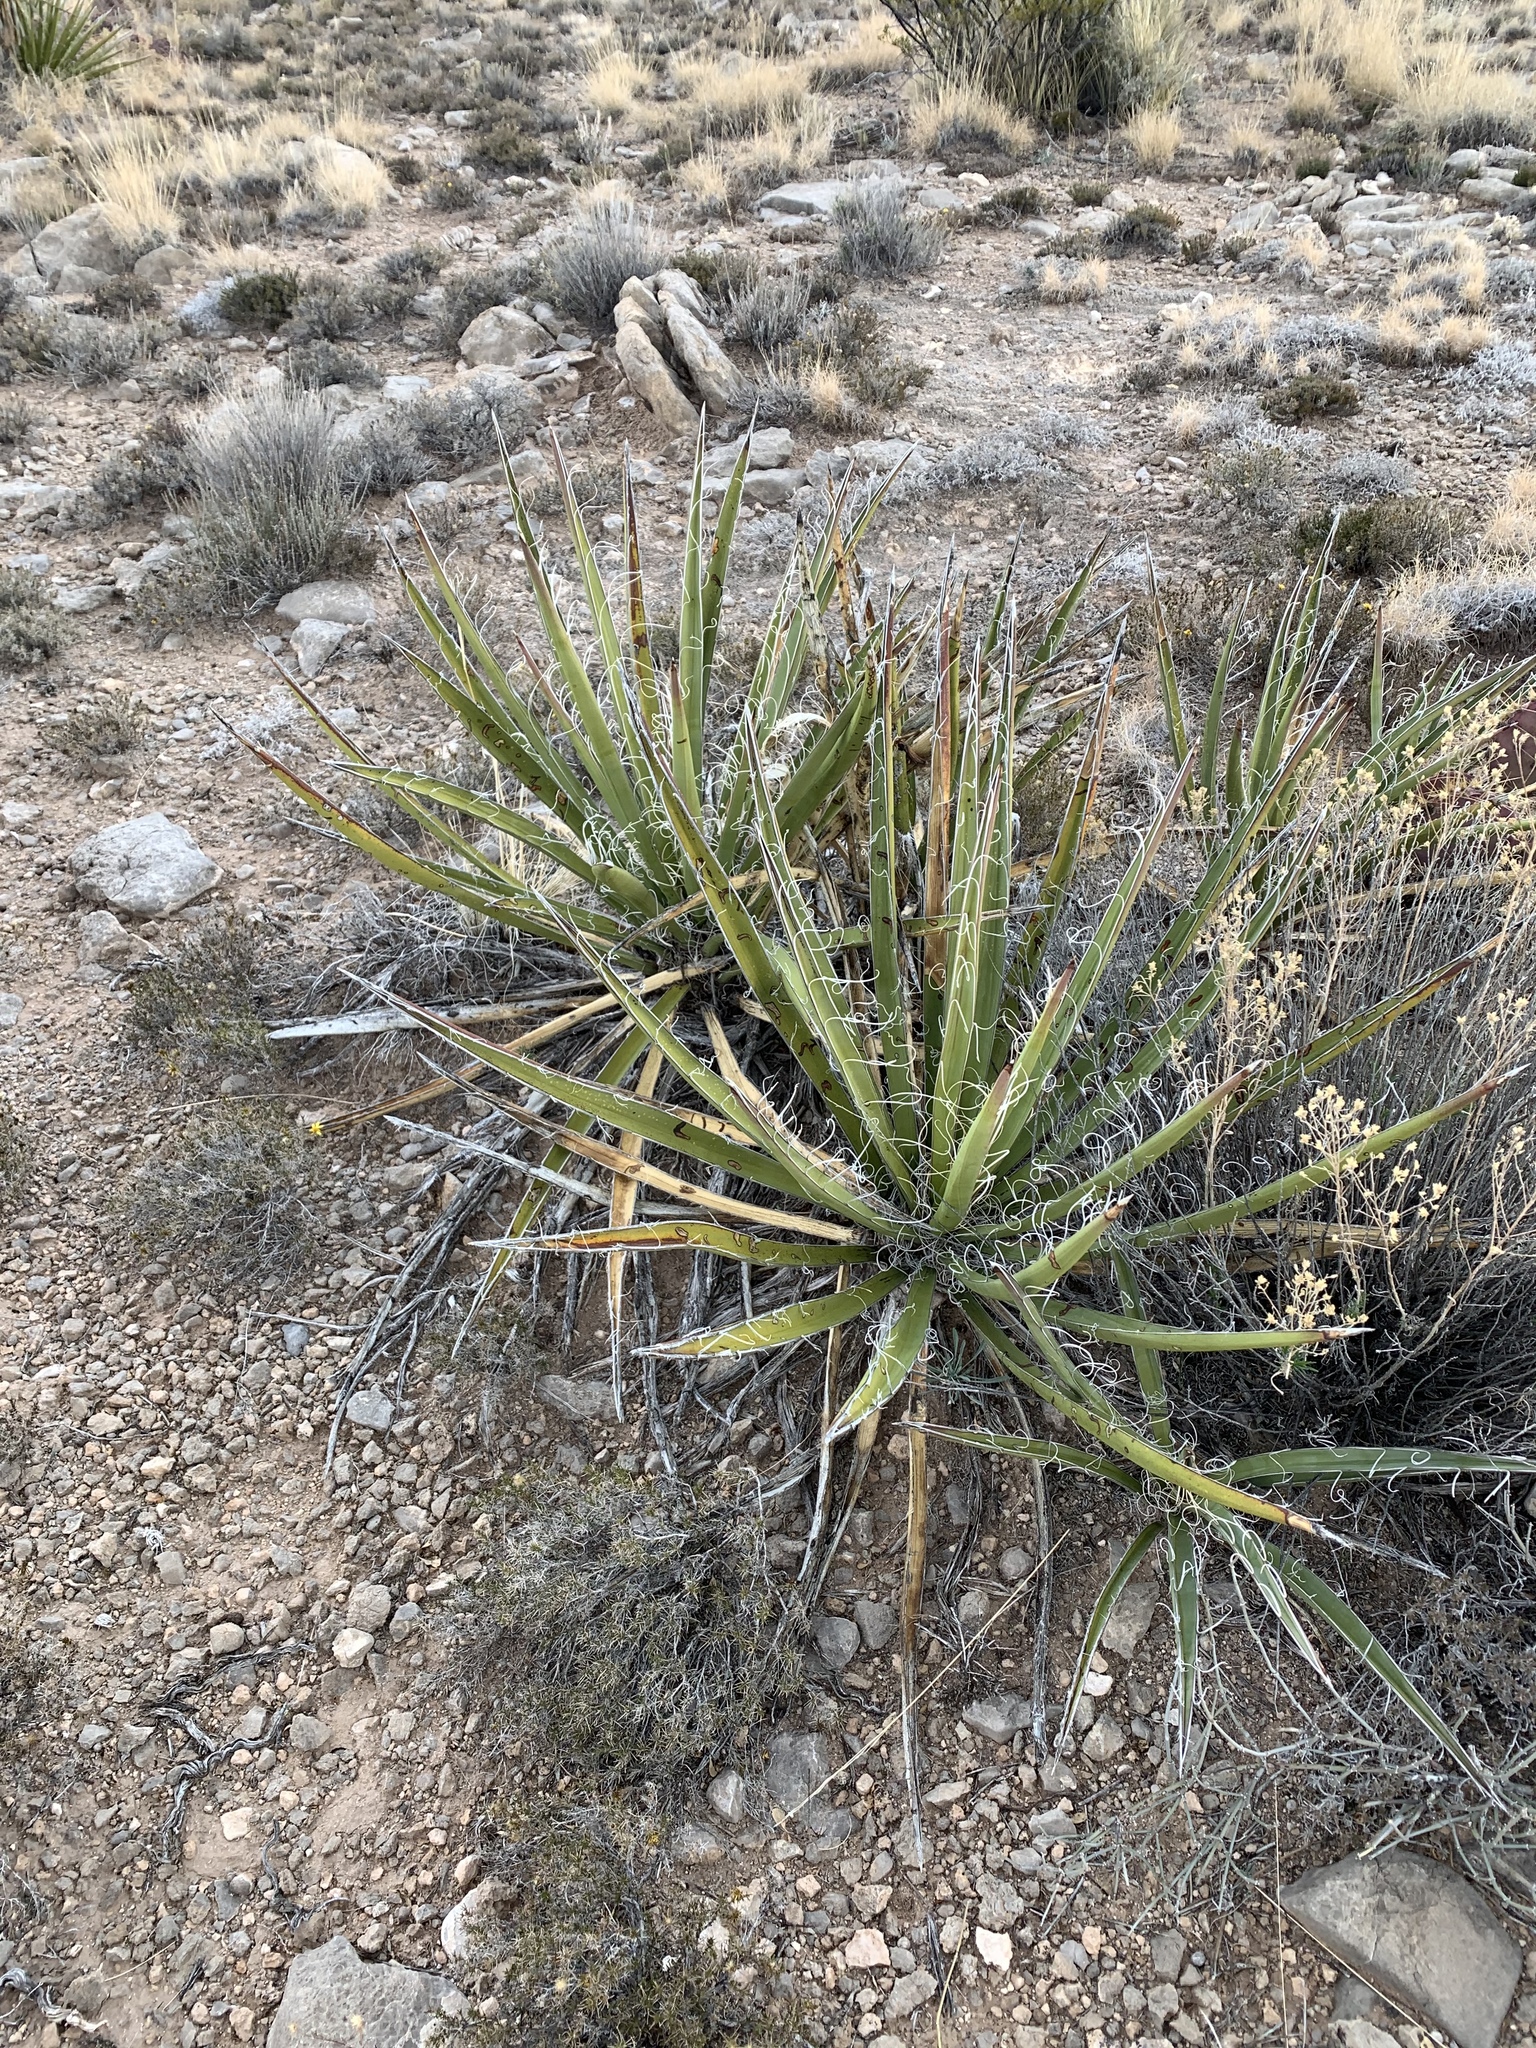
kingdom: Plantae
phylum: Tracheophyta
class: Liliopsida
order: Asparagales
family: Asparagaceae
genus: Yucca
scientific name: Yucca baccata
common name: Banana yucca
